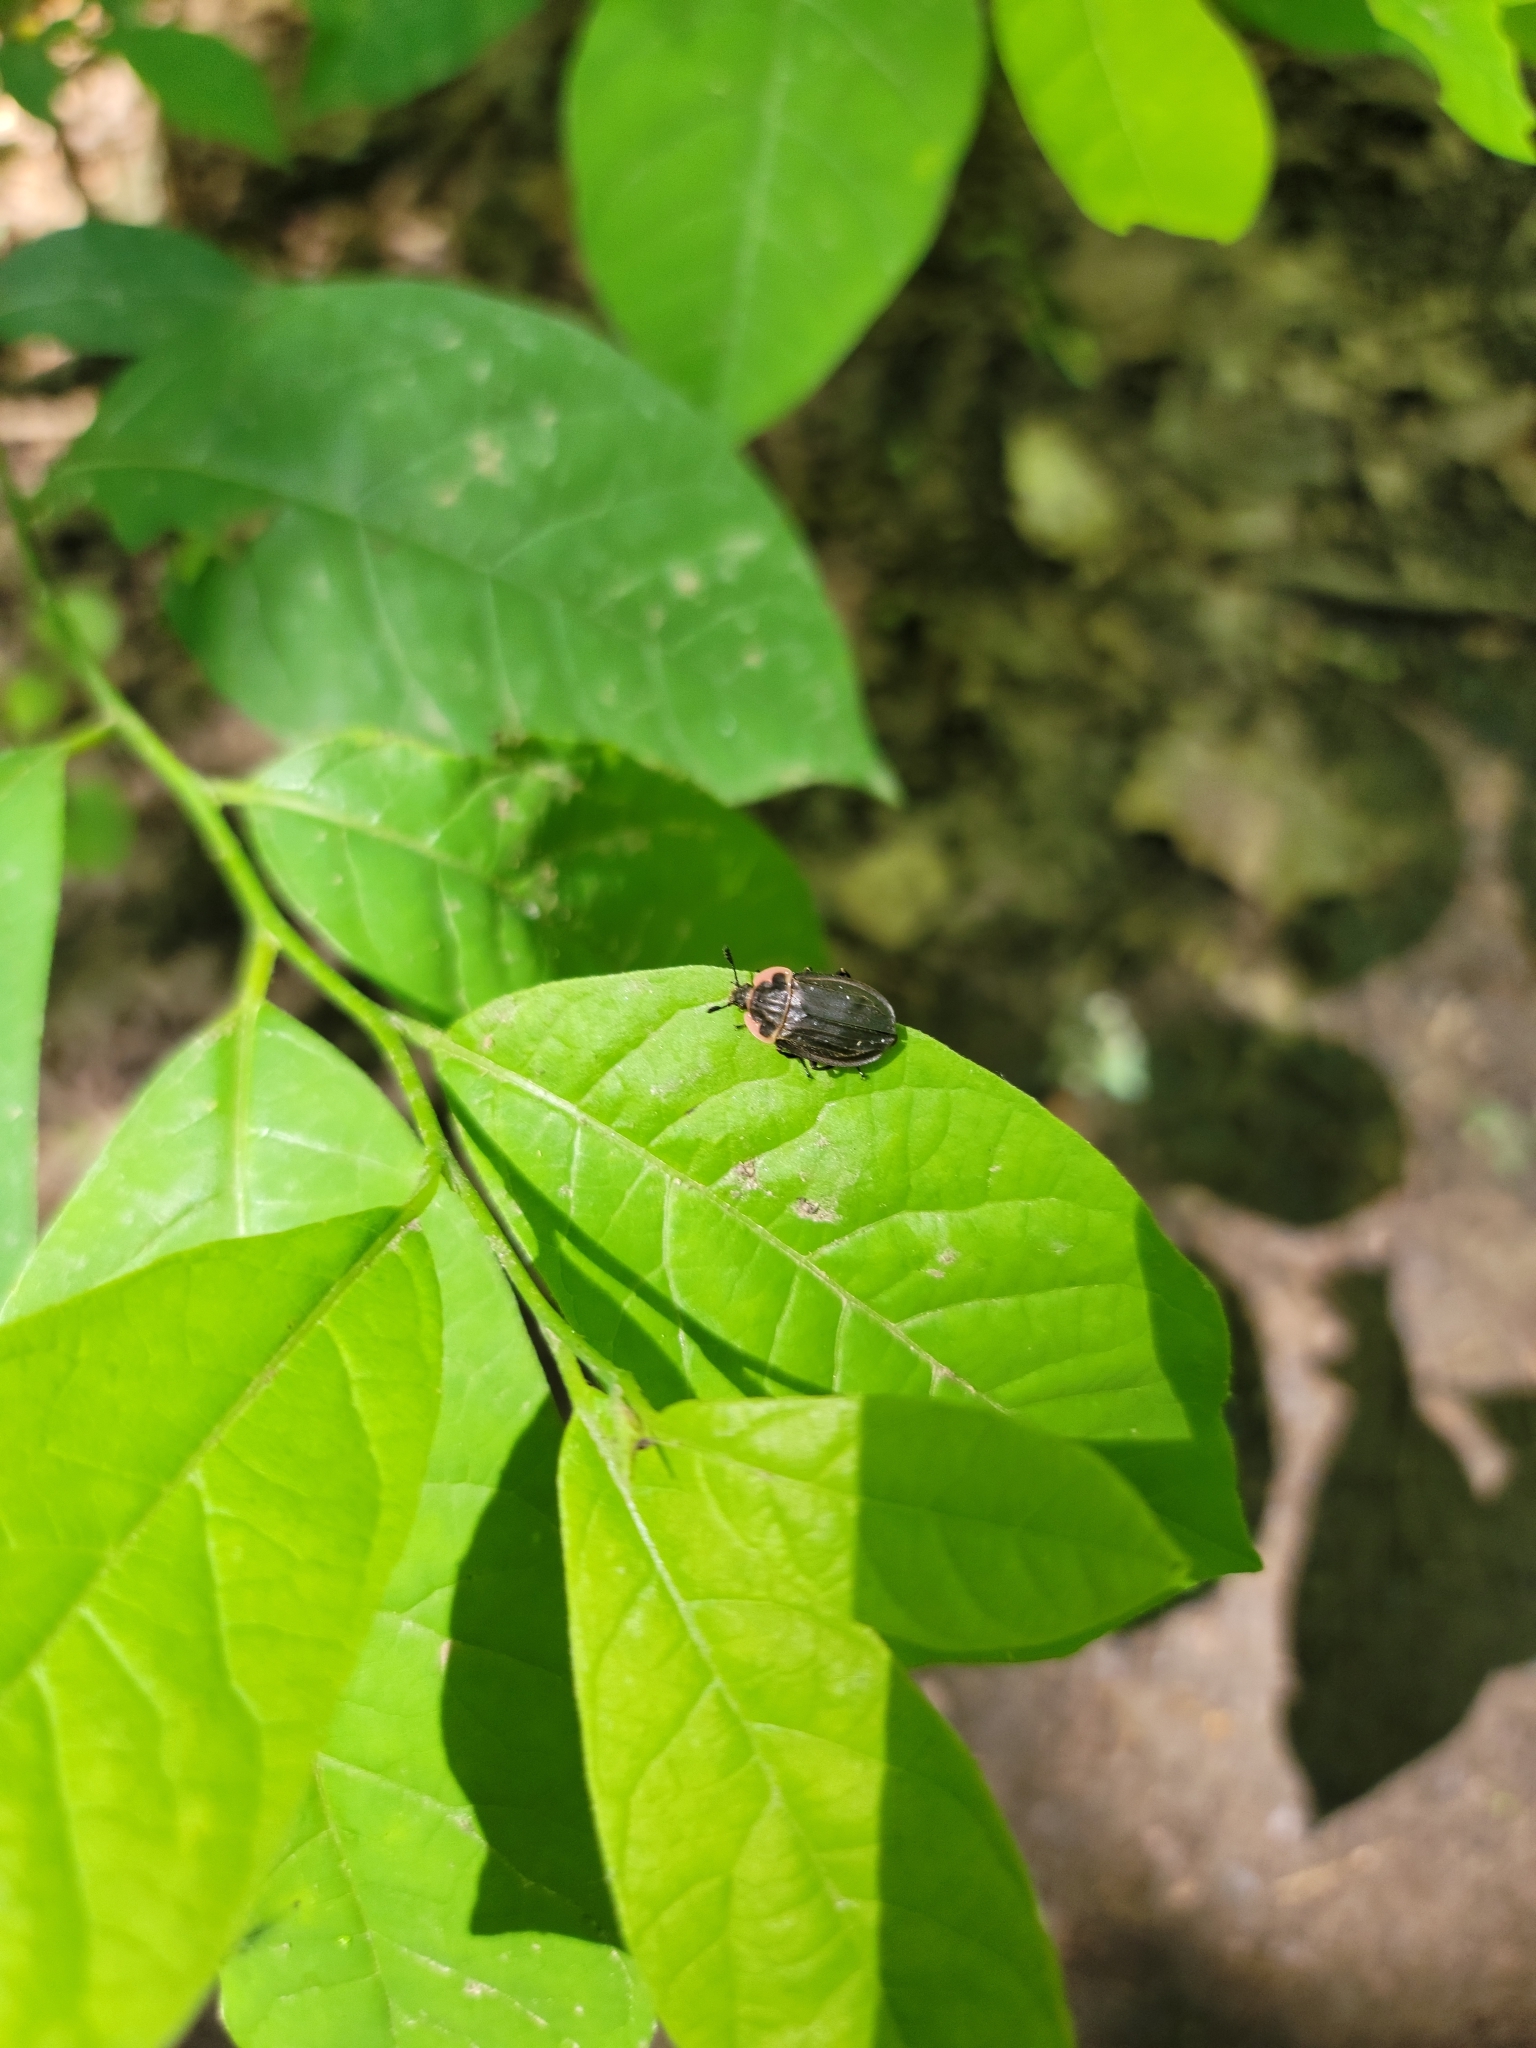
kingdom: Animalia
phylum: Arthropoda
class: Insecta
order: Coleoptera
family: Staphylinidae
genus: Oiceoptoma
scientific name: Oiceoptoma noveboracense
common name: Margined carrion beetle
